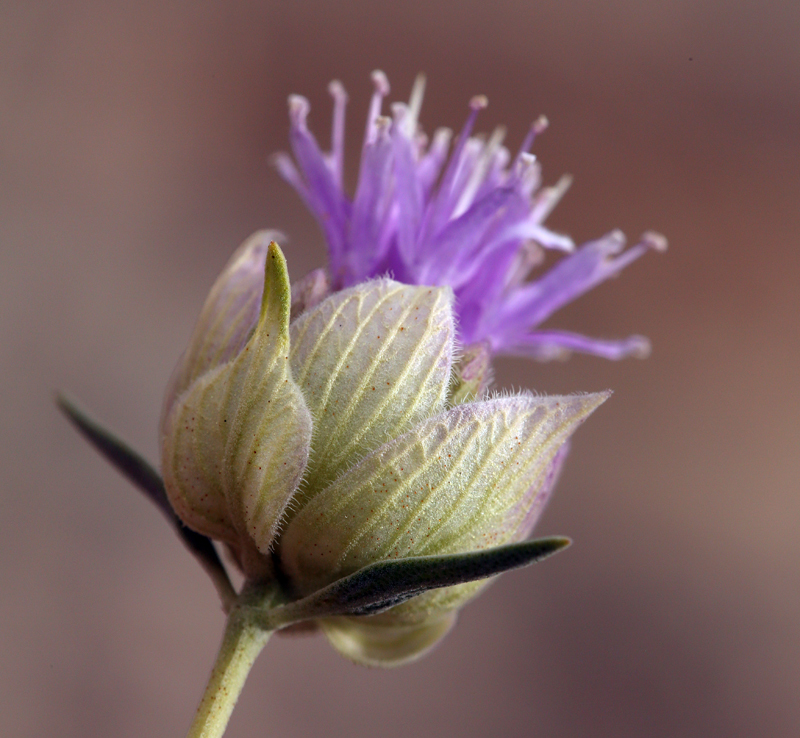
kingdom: Plantae
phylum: Tracheophyta
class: Magnoliopsida
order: Lamiales
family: Lamiaceae
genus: Monardella
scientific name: Monardella linoides
